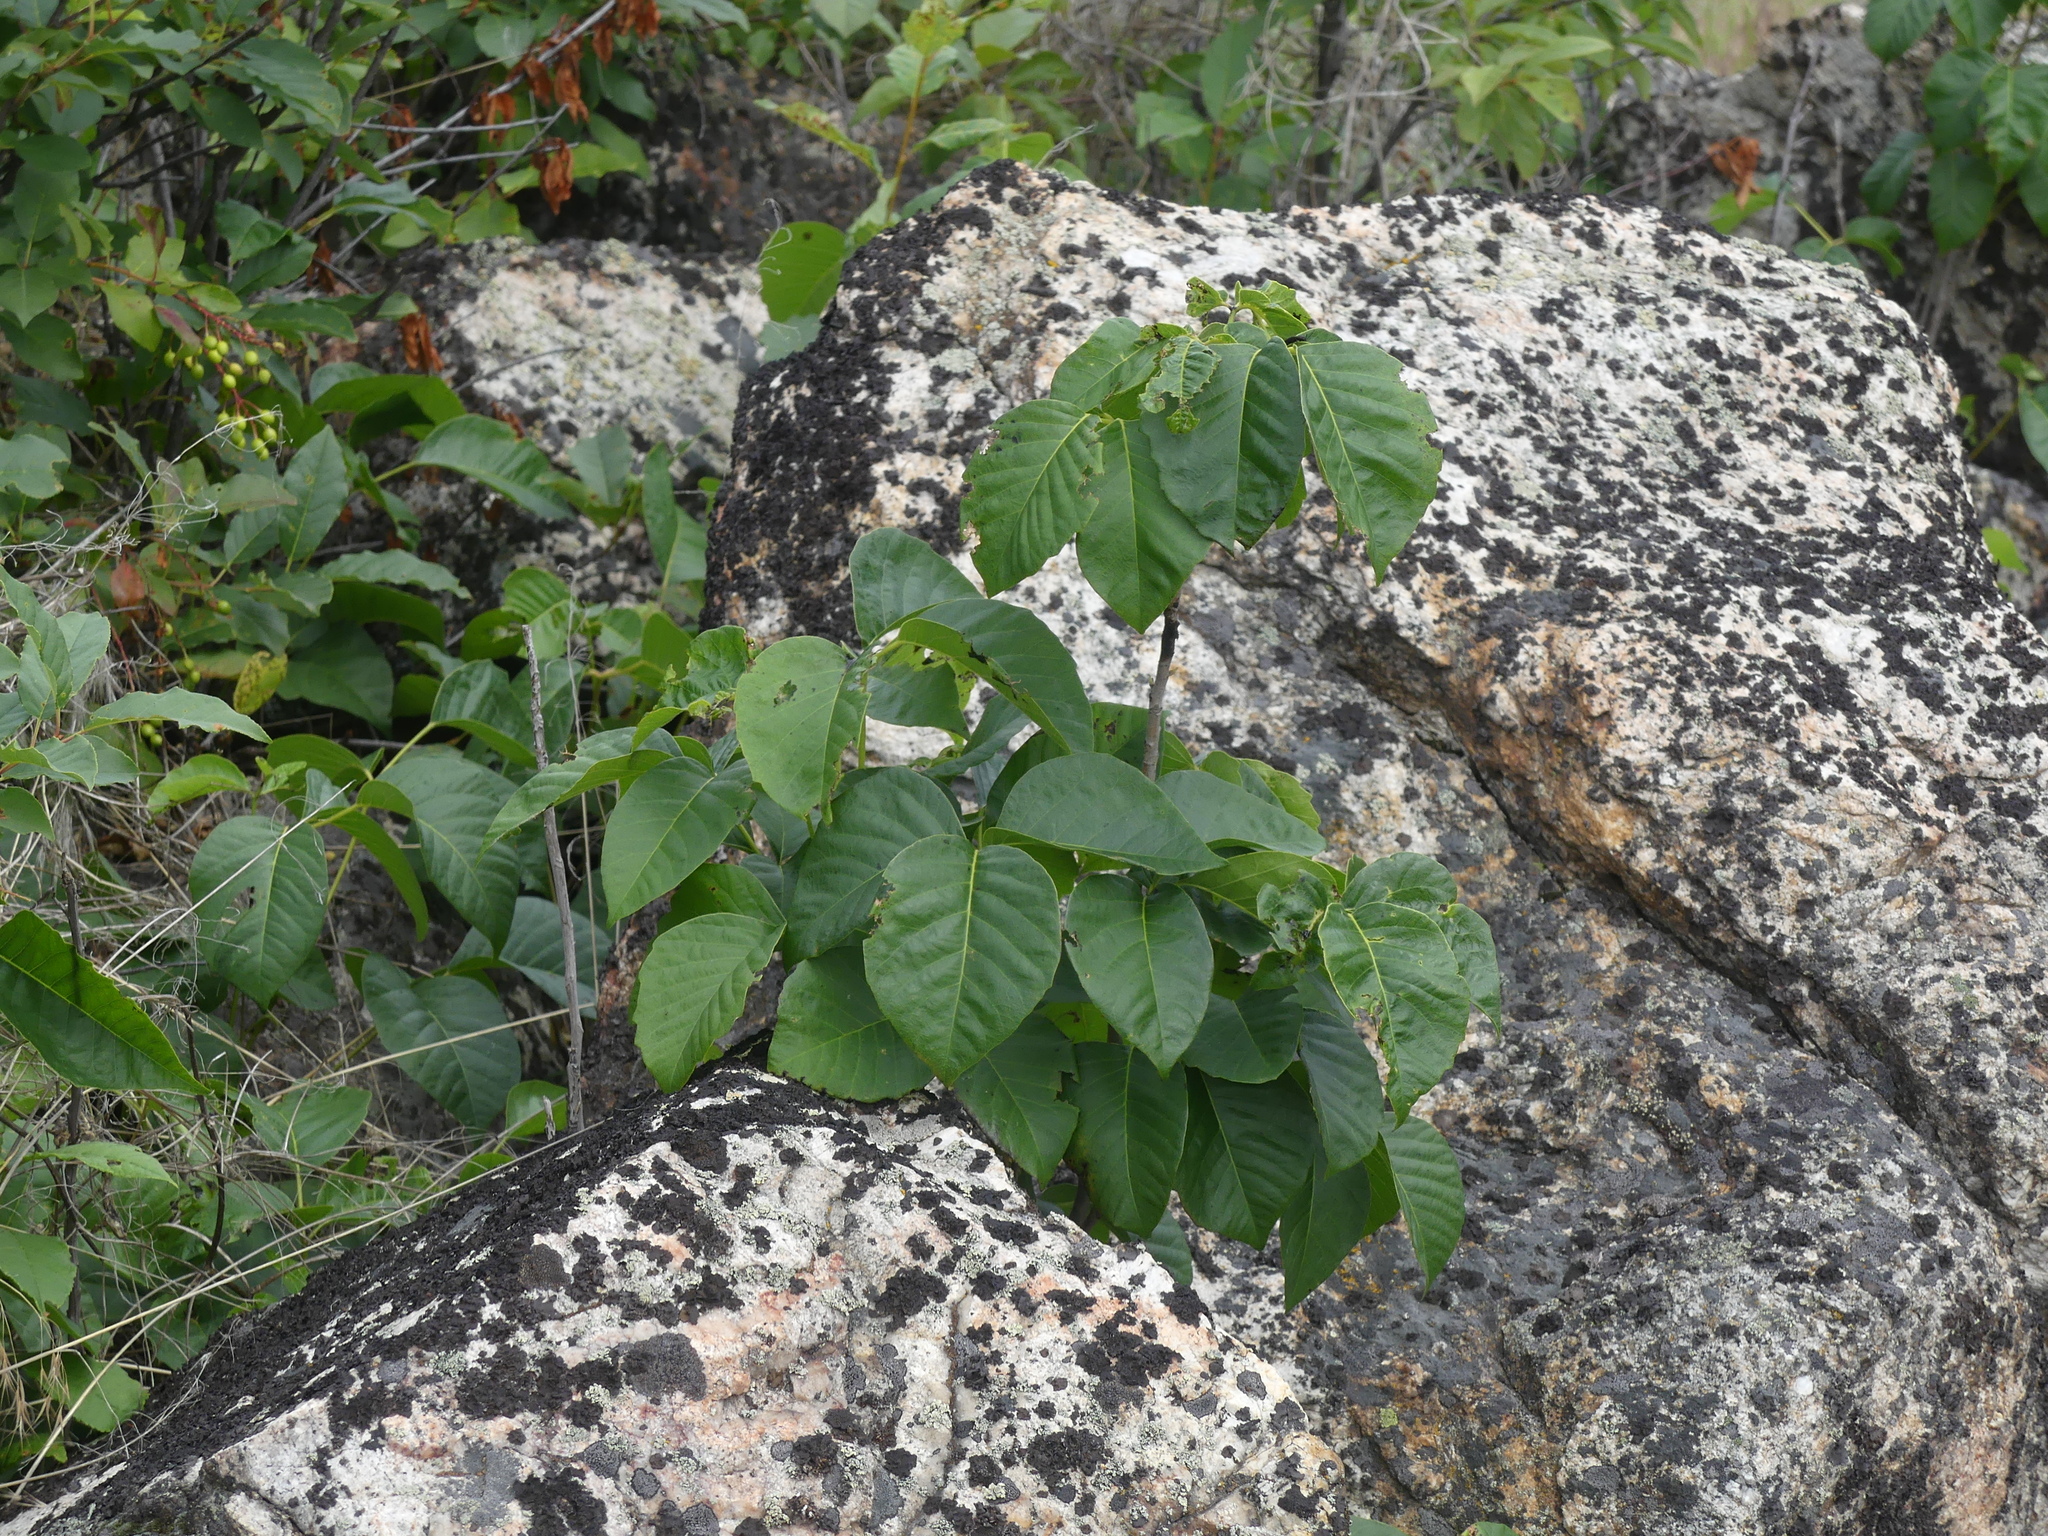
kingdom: Plantae
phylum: Tracheophyta
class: Magnoliopsida
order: Sapindales
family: Anacardiaceae
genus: Toxicodendron
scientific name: Toxicodendron rydbergii
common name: Rydberg's poison-ivy
